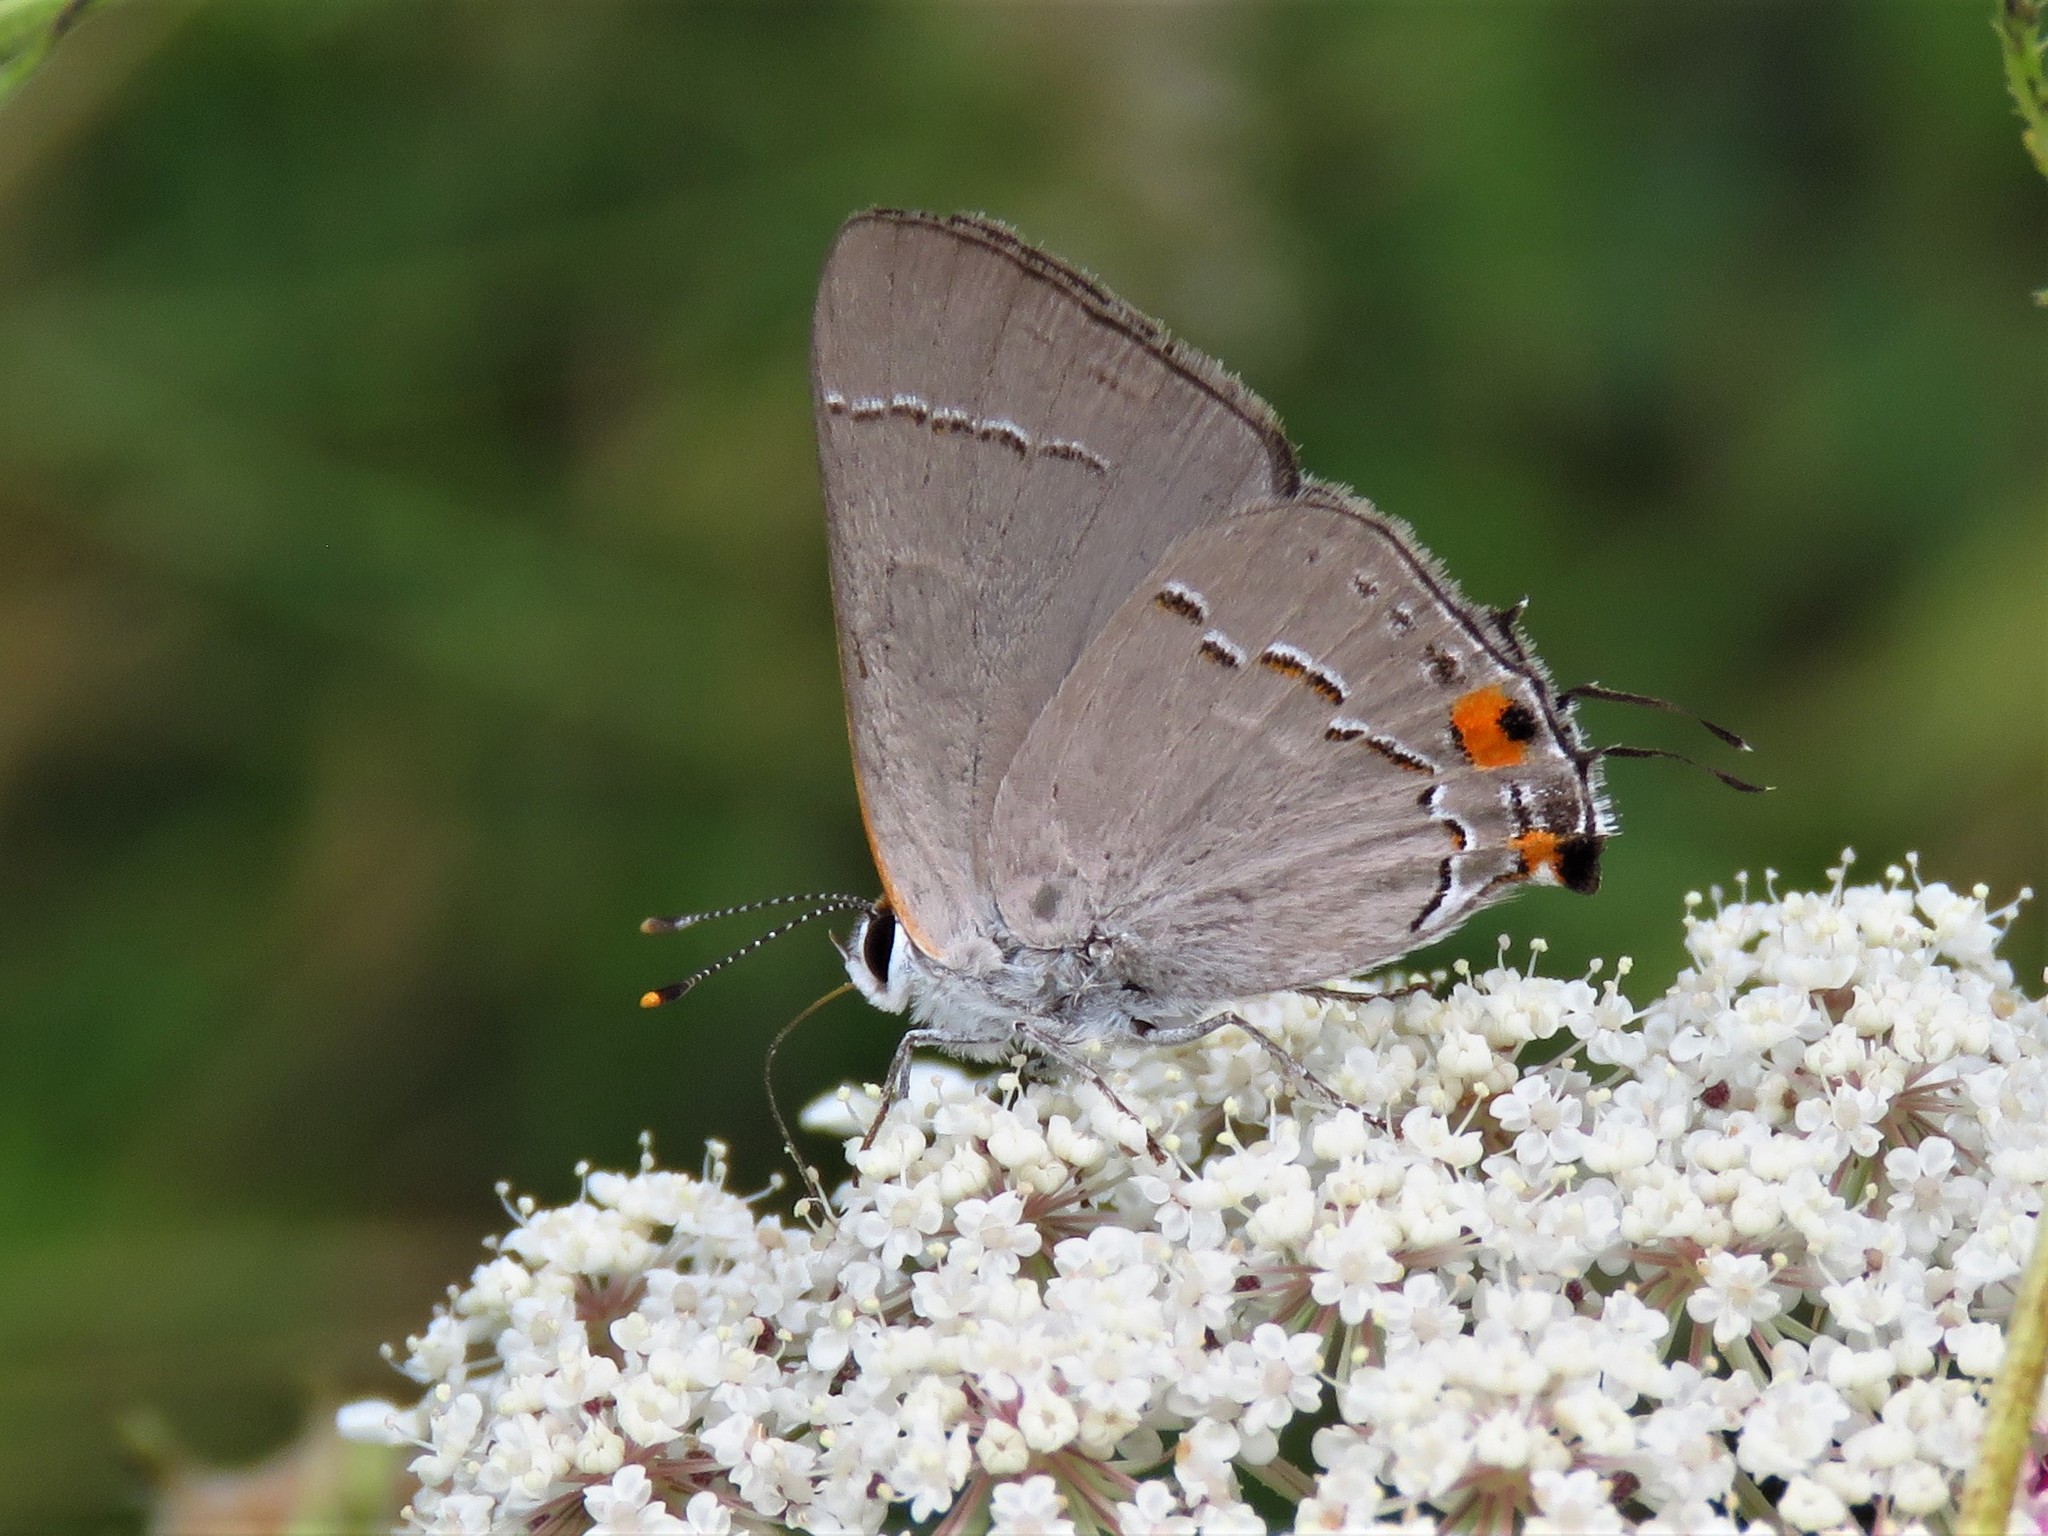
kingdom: Animalia
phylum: Arthropoda
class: Insecta
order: Lepidoptera
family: Lycaenidae
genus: Strymon
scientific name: Strymon melinus
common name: Gray hairstreak
